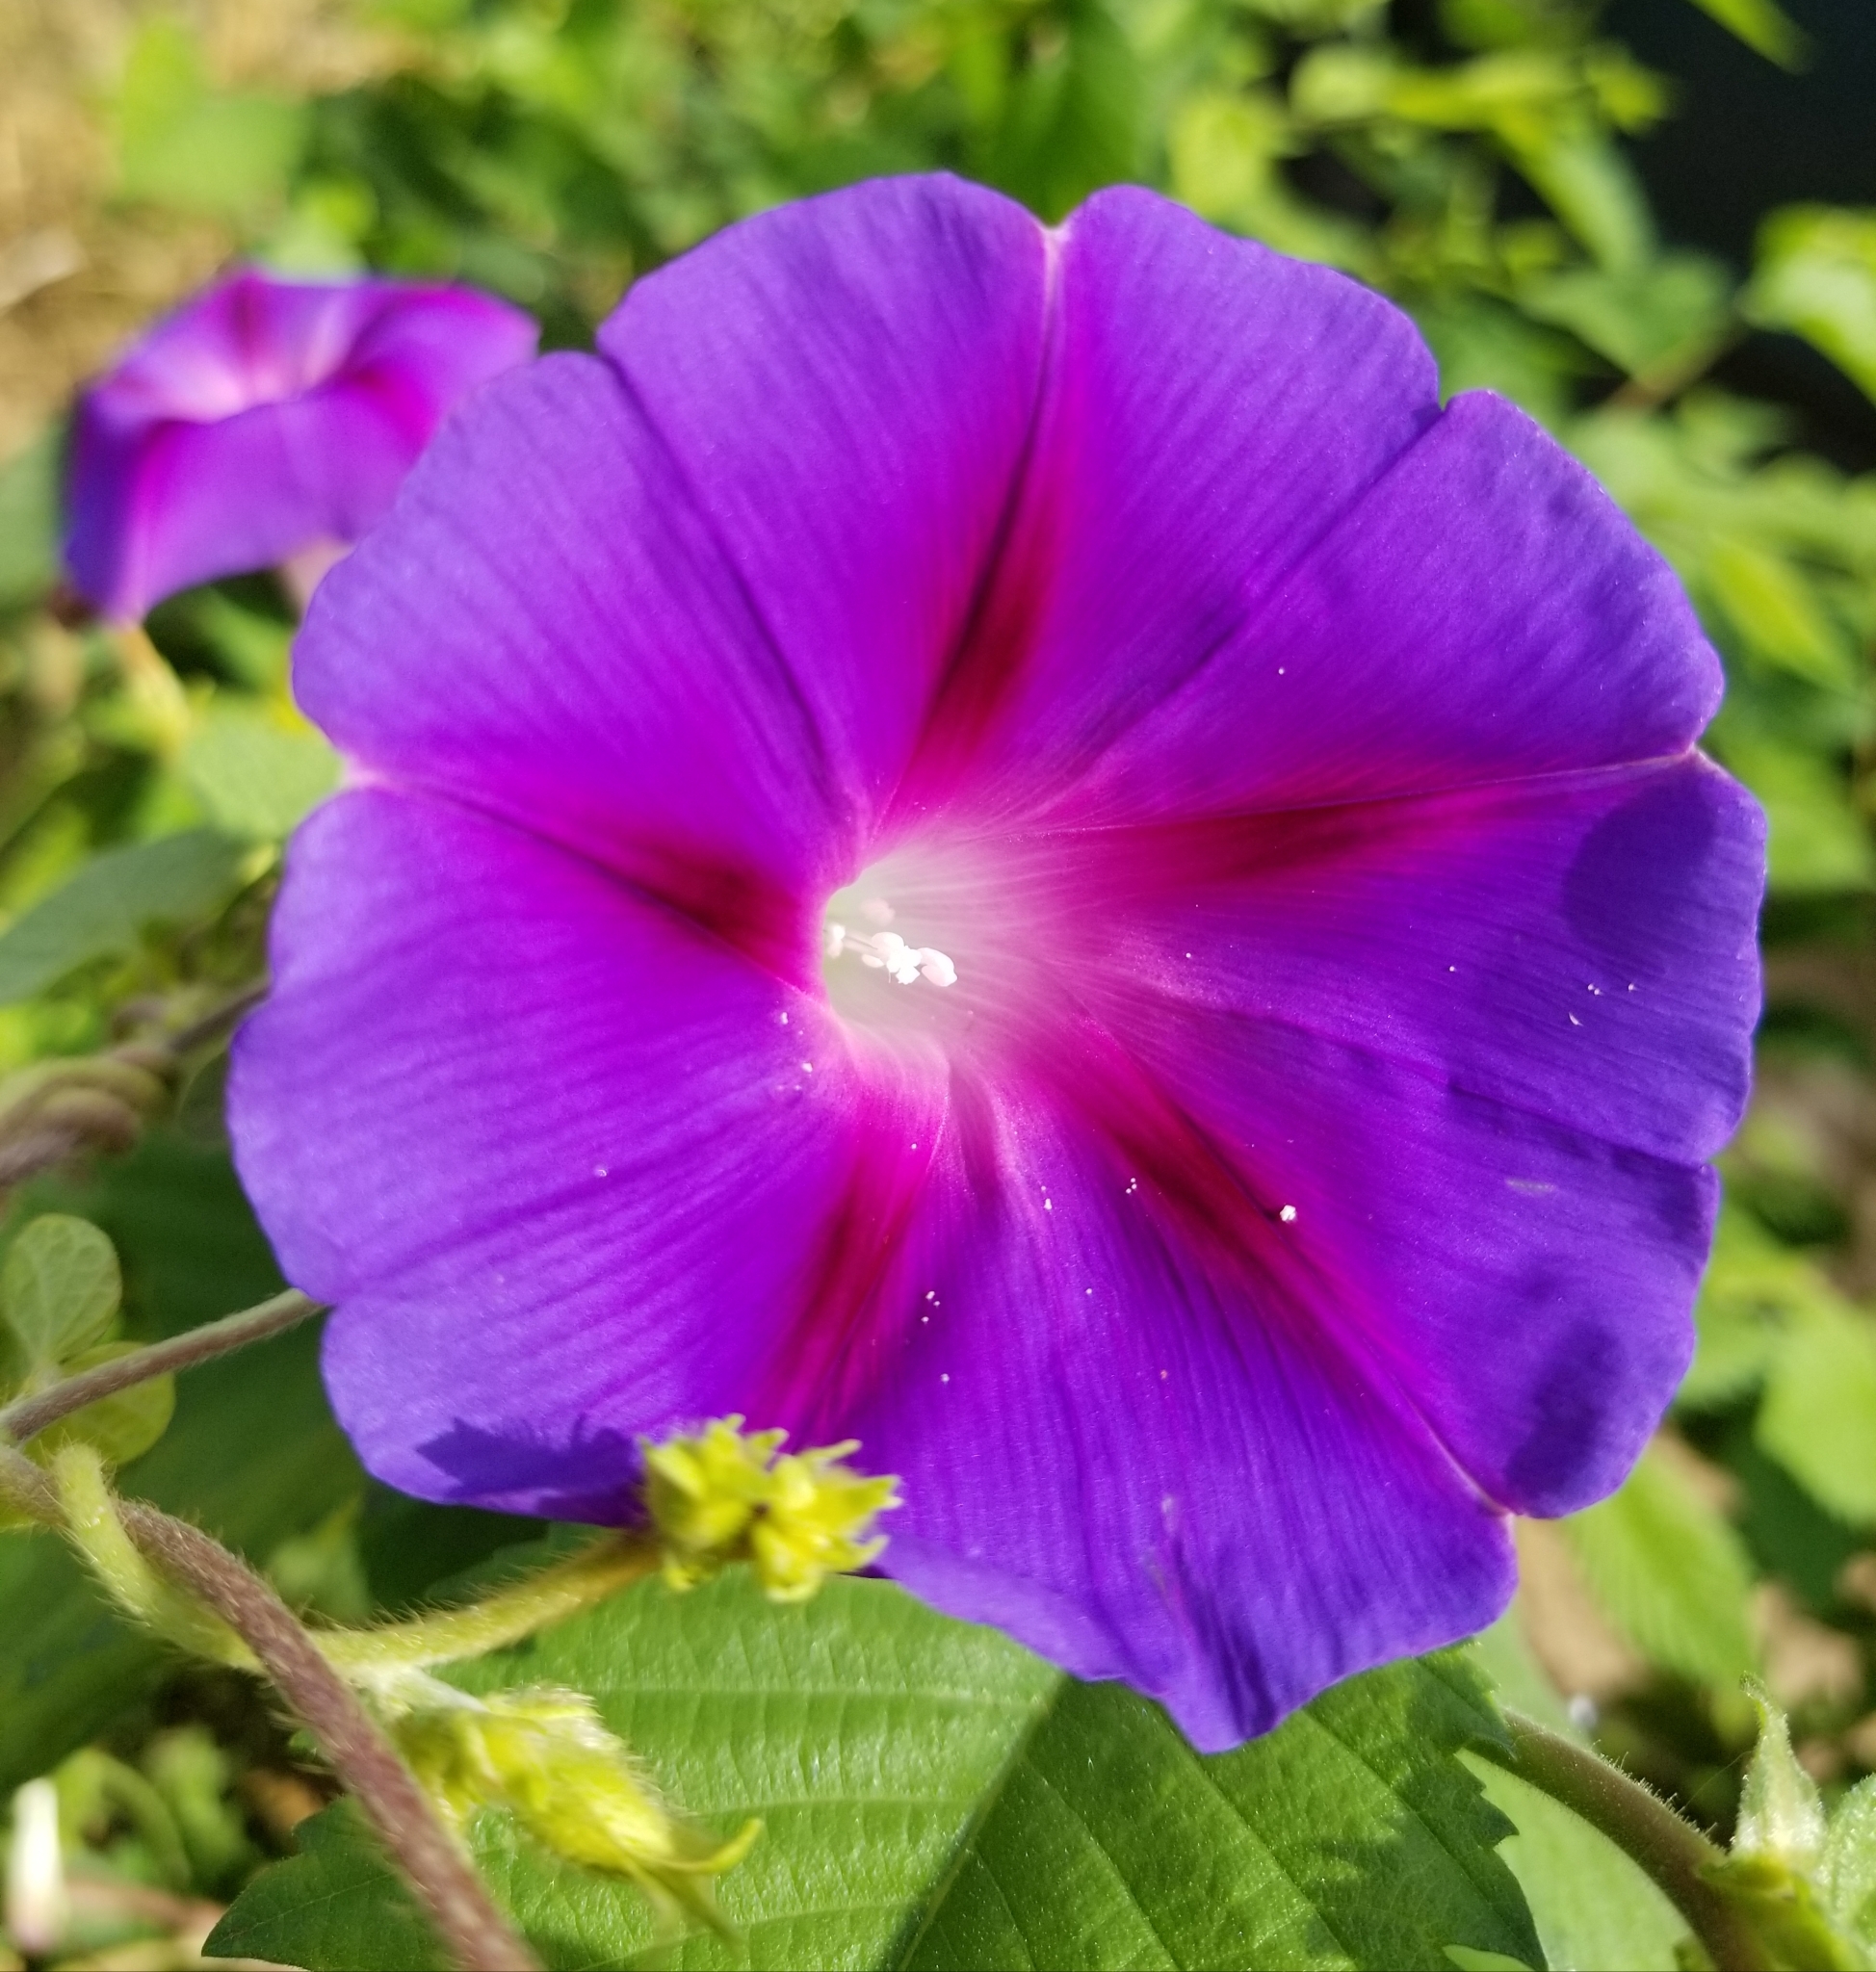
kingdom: Plantae
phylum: Tracheophyta
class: Magnoliopsida
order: Solanales
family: Convolvulaceae
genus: Ipomoea
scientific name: Ipomoea purpurea
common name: Common morning-glory
